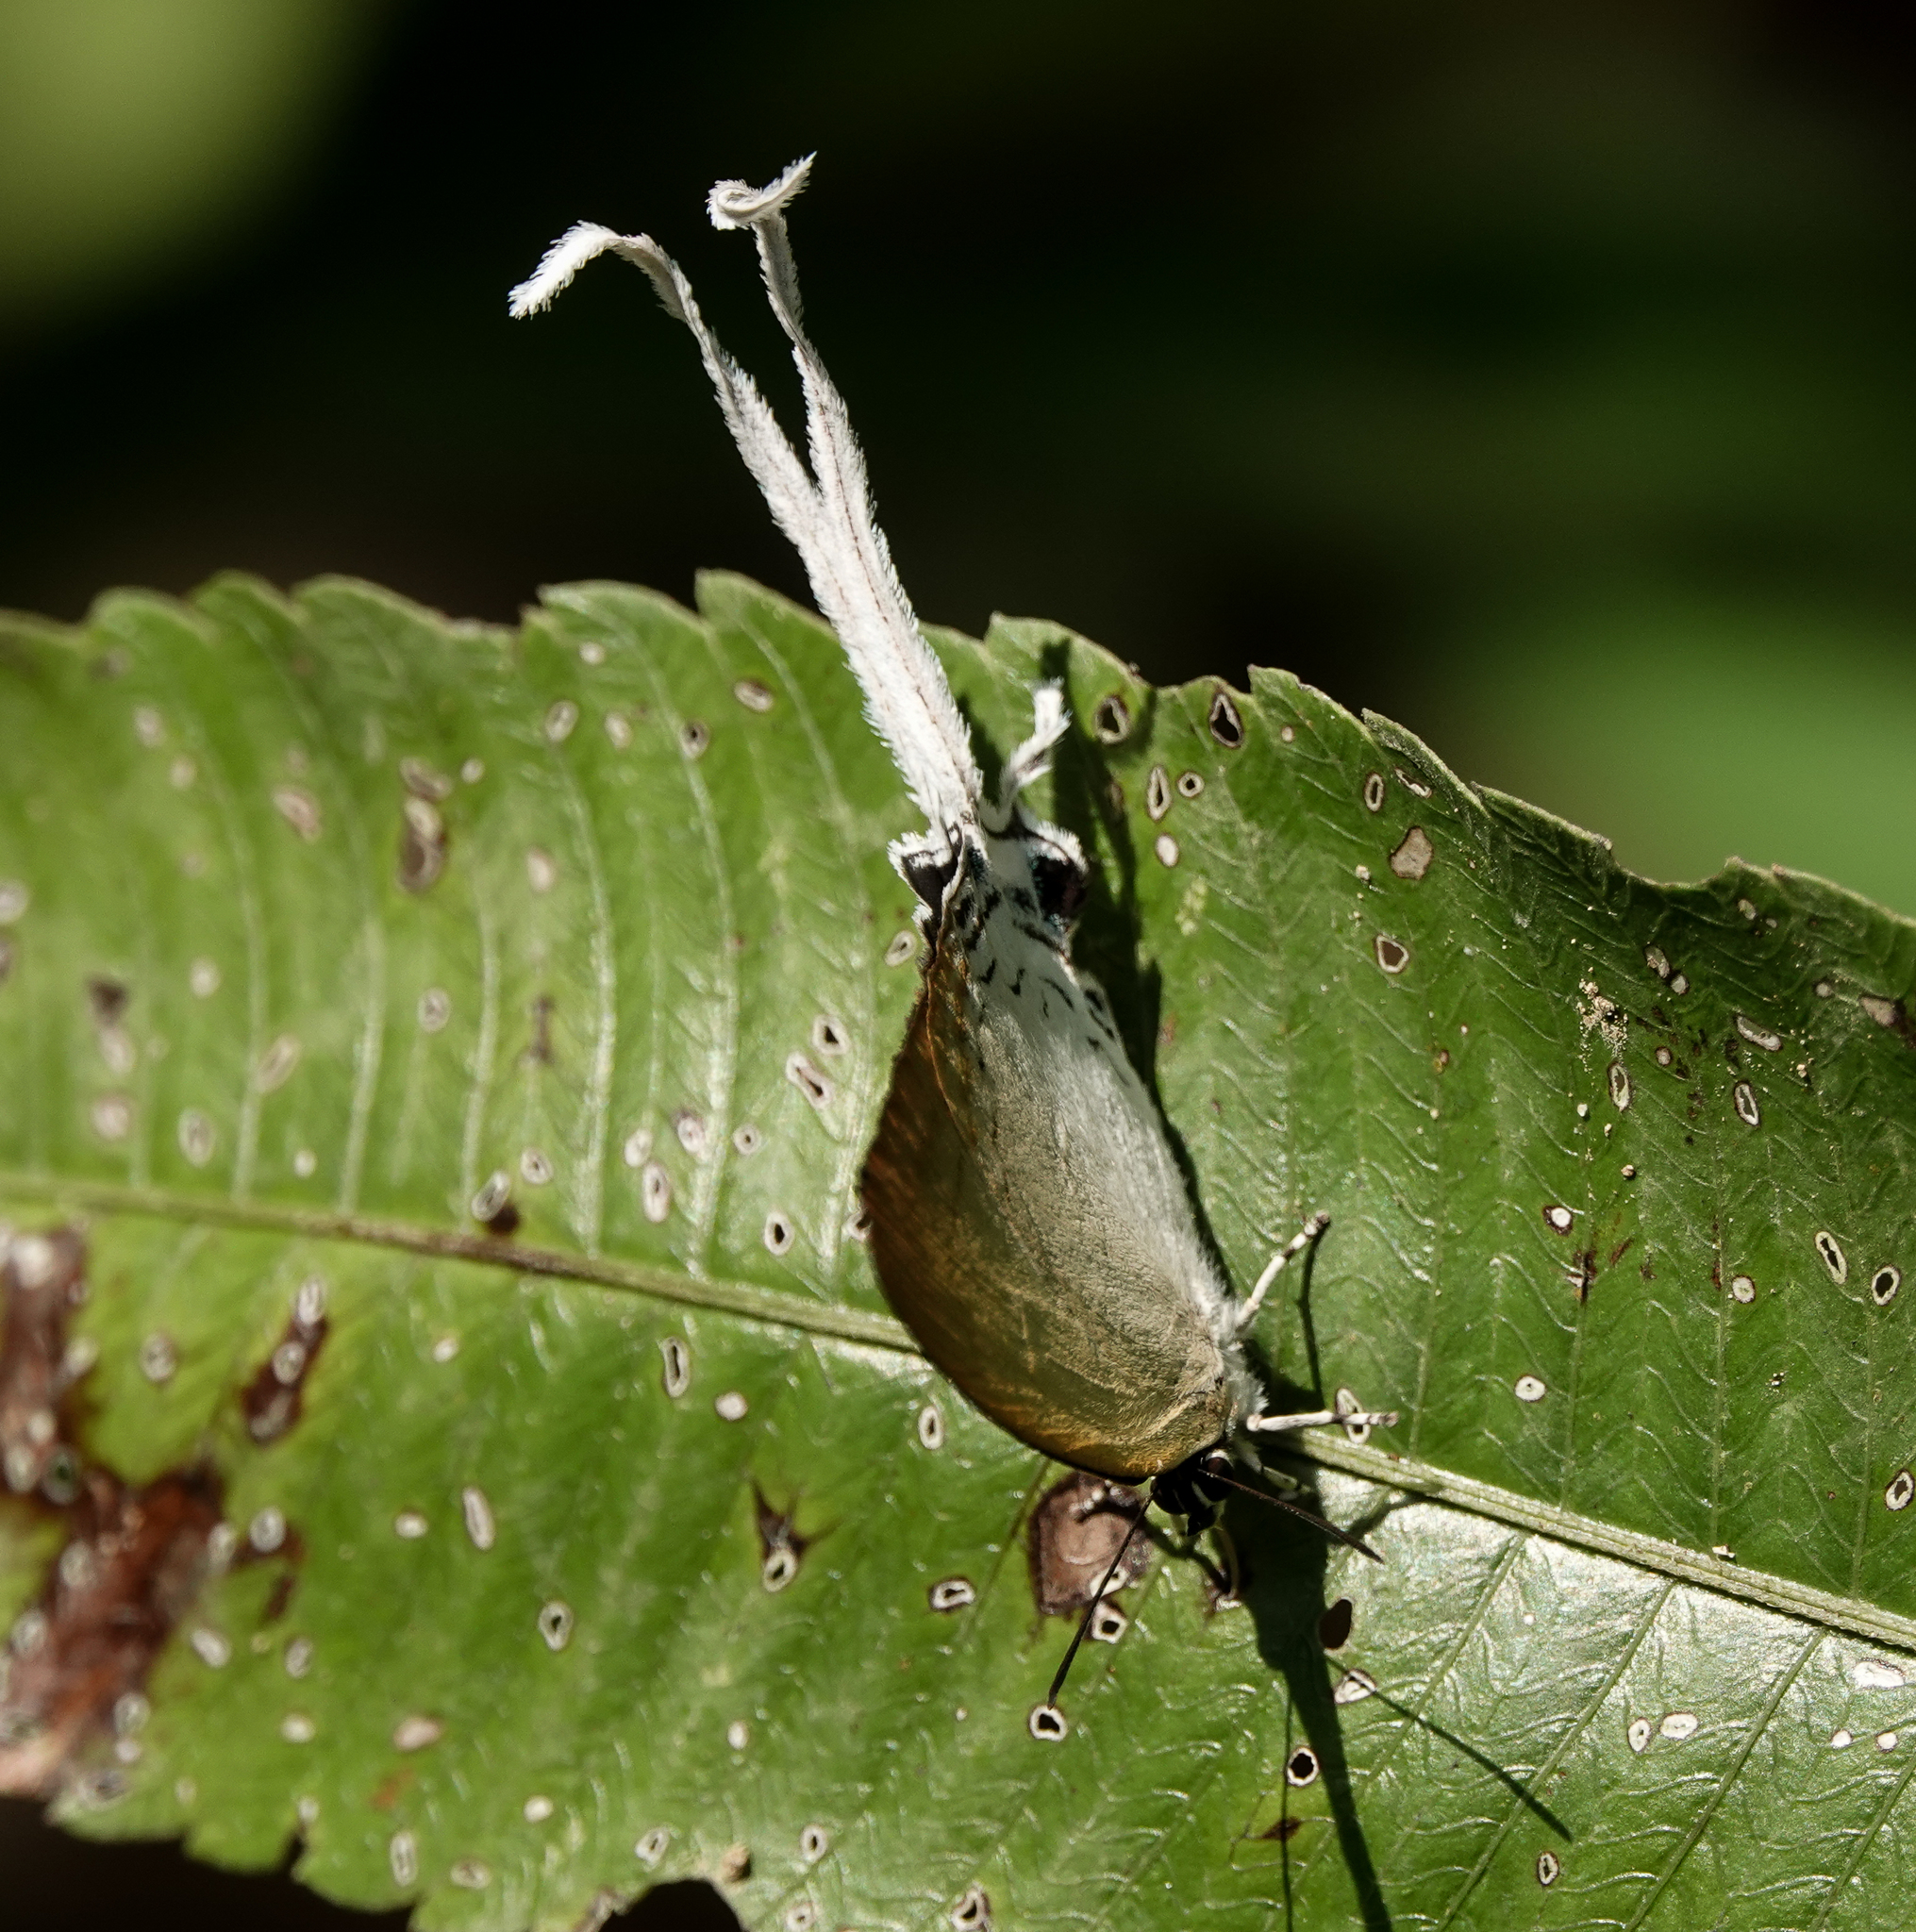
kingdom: Animalia
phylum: Arthropoda
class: Insecta
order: Lepidoptera
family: Lycaenidae
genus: Cheritra
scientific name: Cheritra freja
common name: Common imperial
